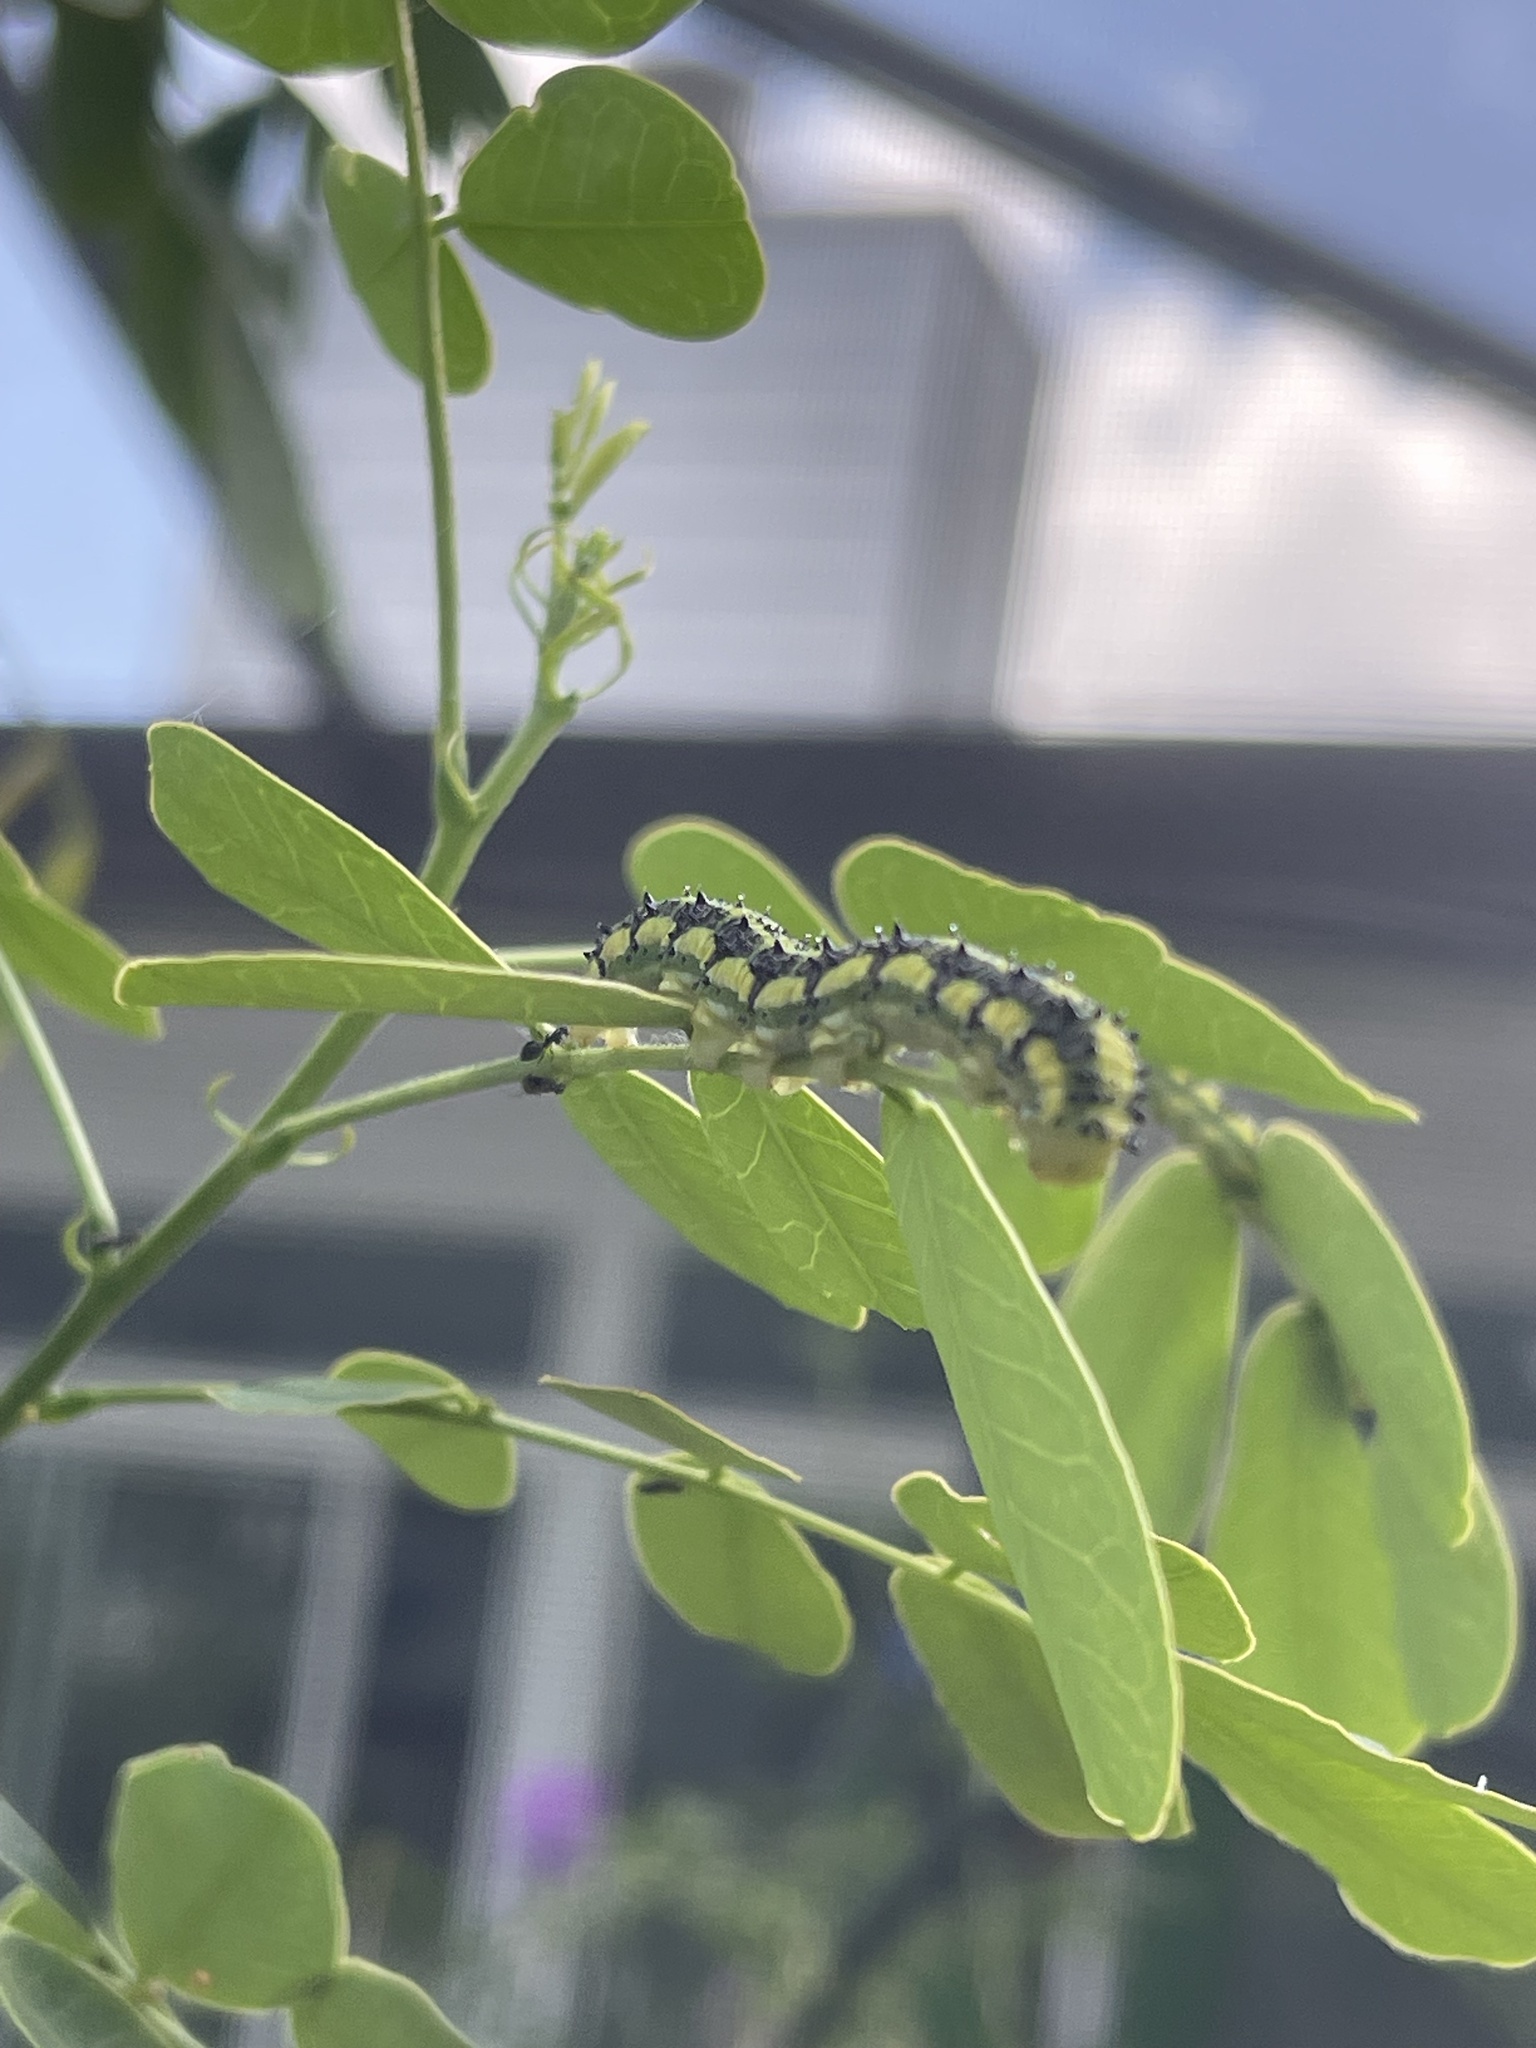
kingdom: Animalia
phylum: Arthropoda
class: Insecta
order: Lepidoptera
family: Pieridae
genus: Phoebis
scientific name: Phoebis philea
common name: Orange-barred giant sulphur
